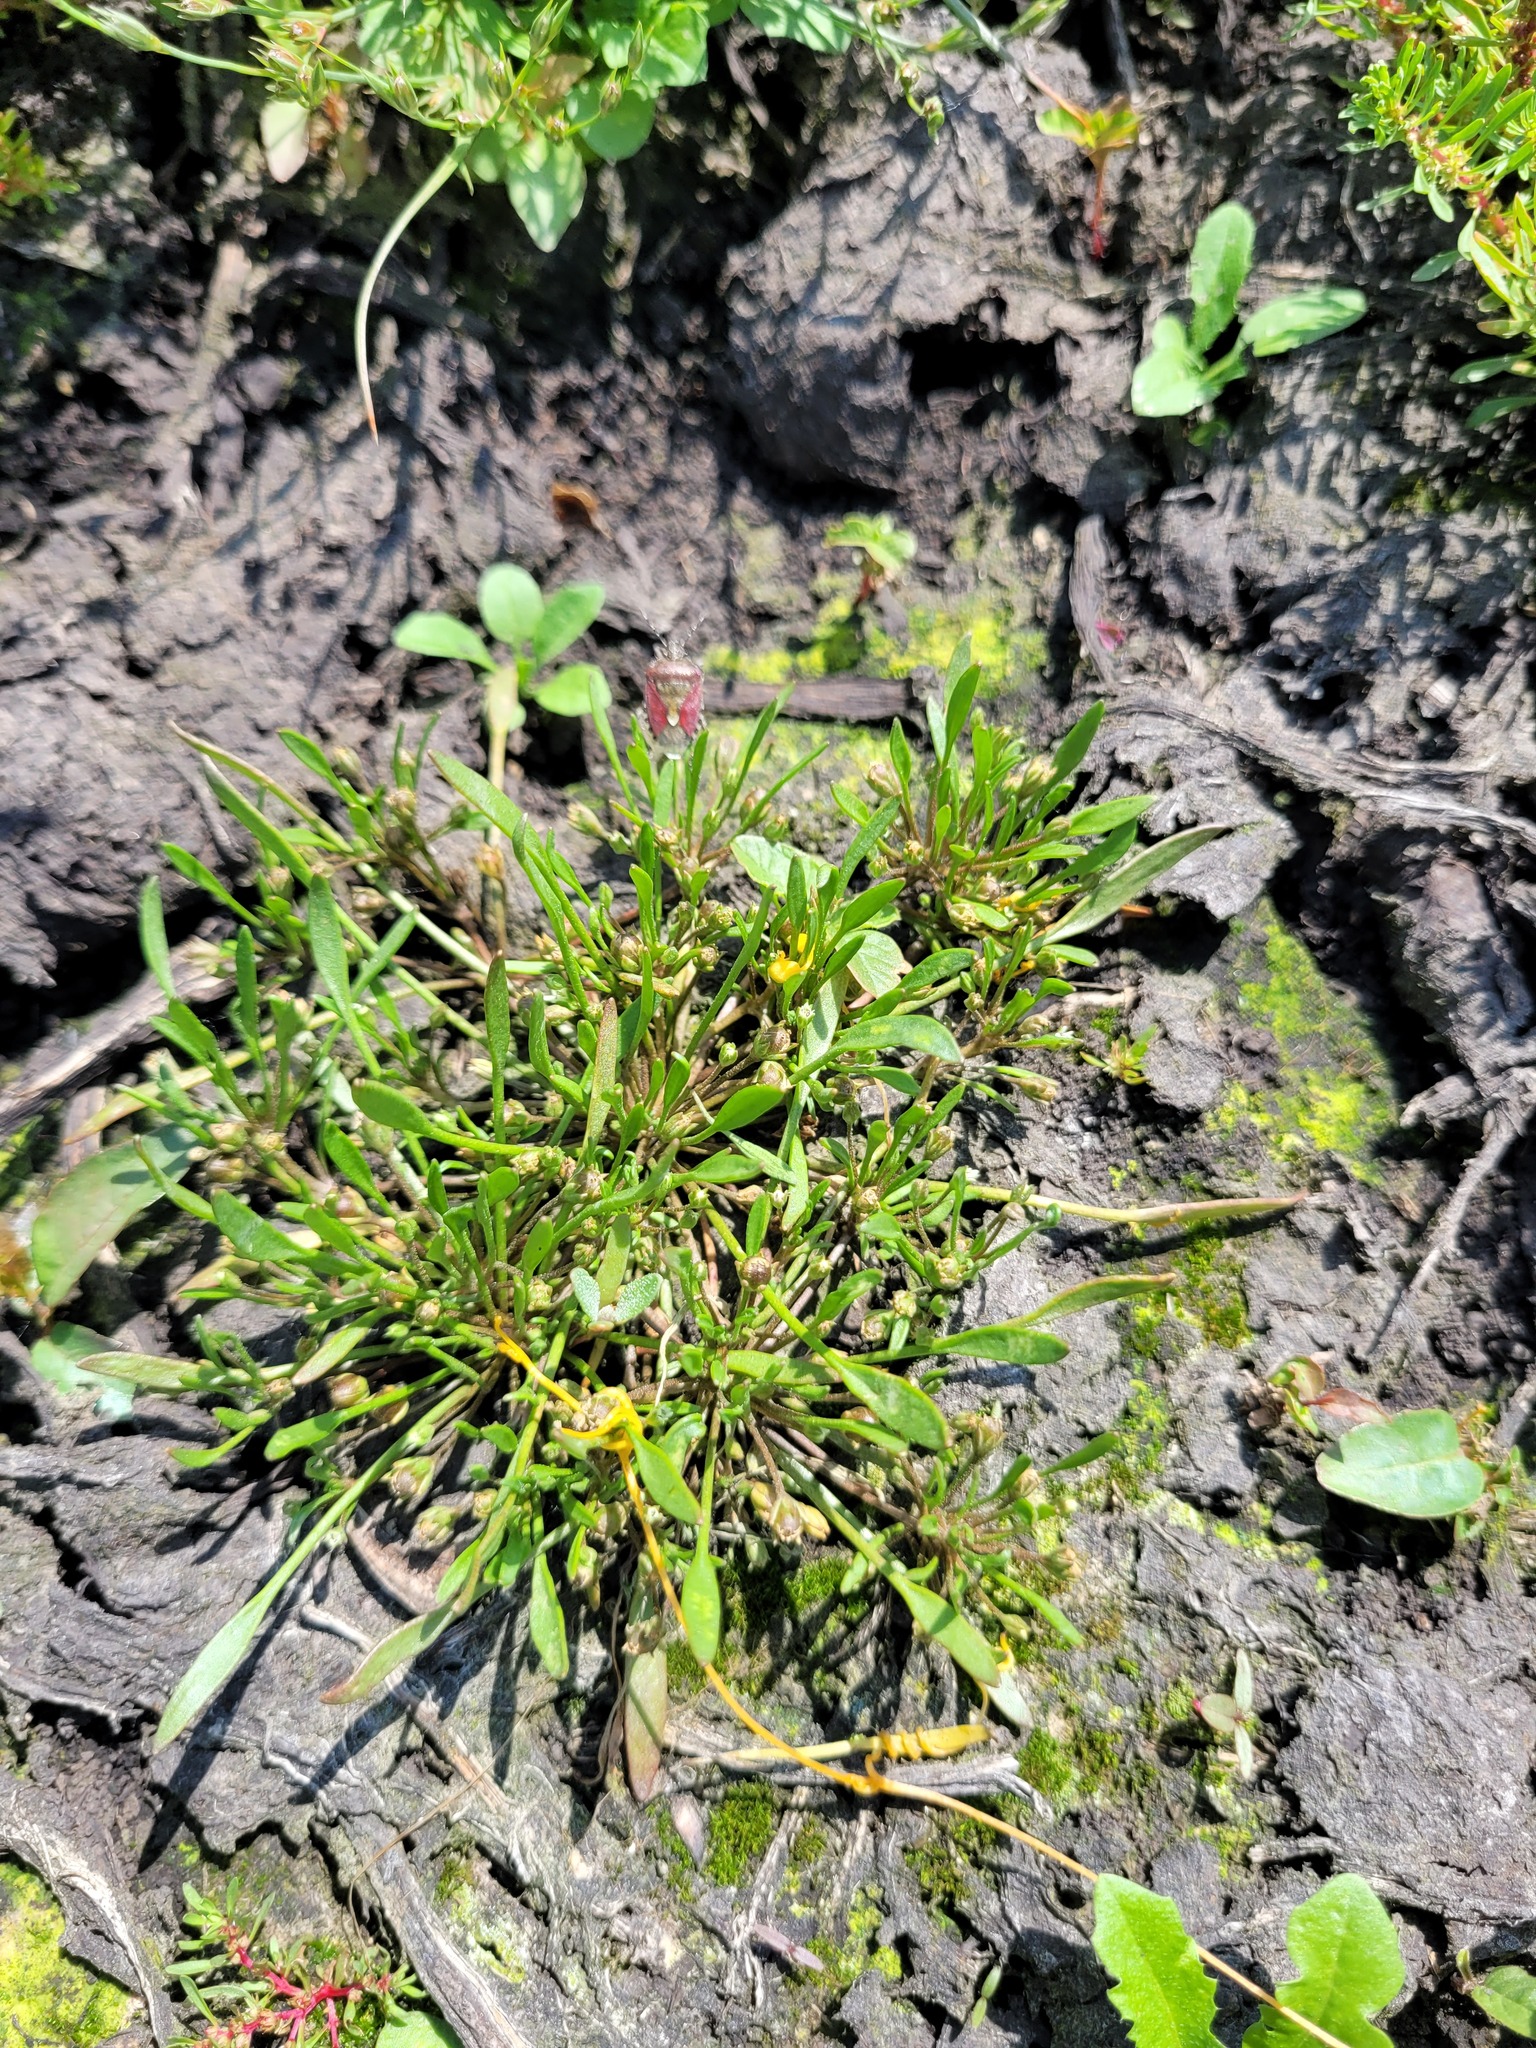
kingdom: Plantae
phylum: Tracheophyta
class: Magnoliopsida
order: Lamiales
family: Scrophulariaceae
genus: Limosella
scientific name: Limosella aquatica
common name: Mudwort
